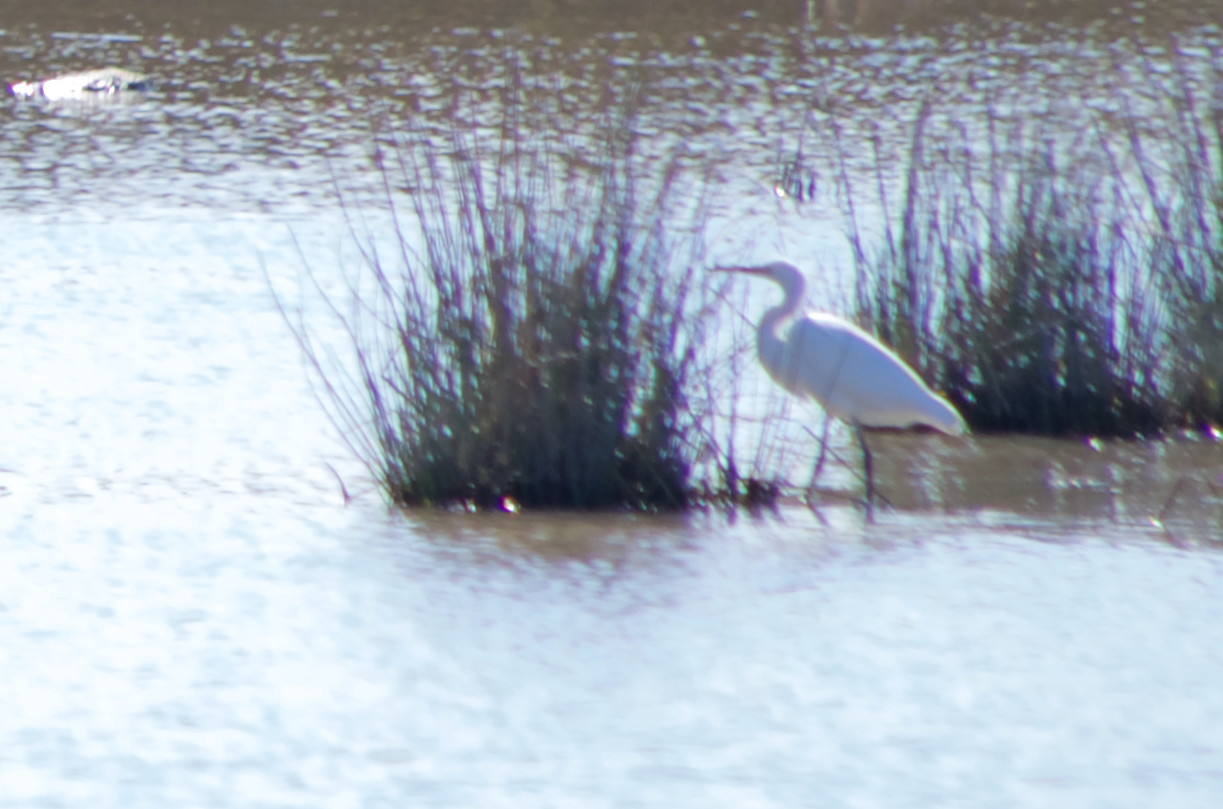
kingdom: Animalia
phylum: Chordata
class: Aves
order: Pelecaniformes
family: Ardeidae
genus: Egretta
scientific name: Egretta garzetta
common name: Little egret
